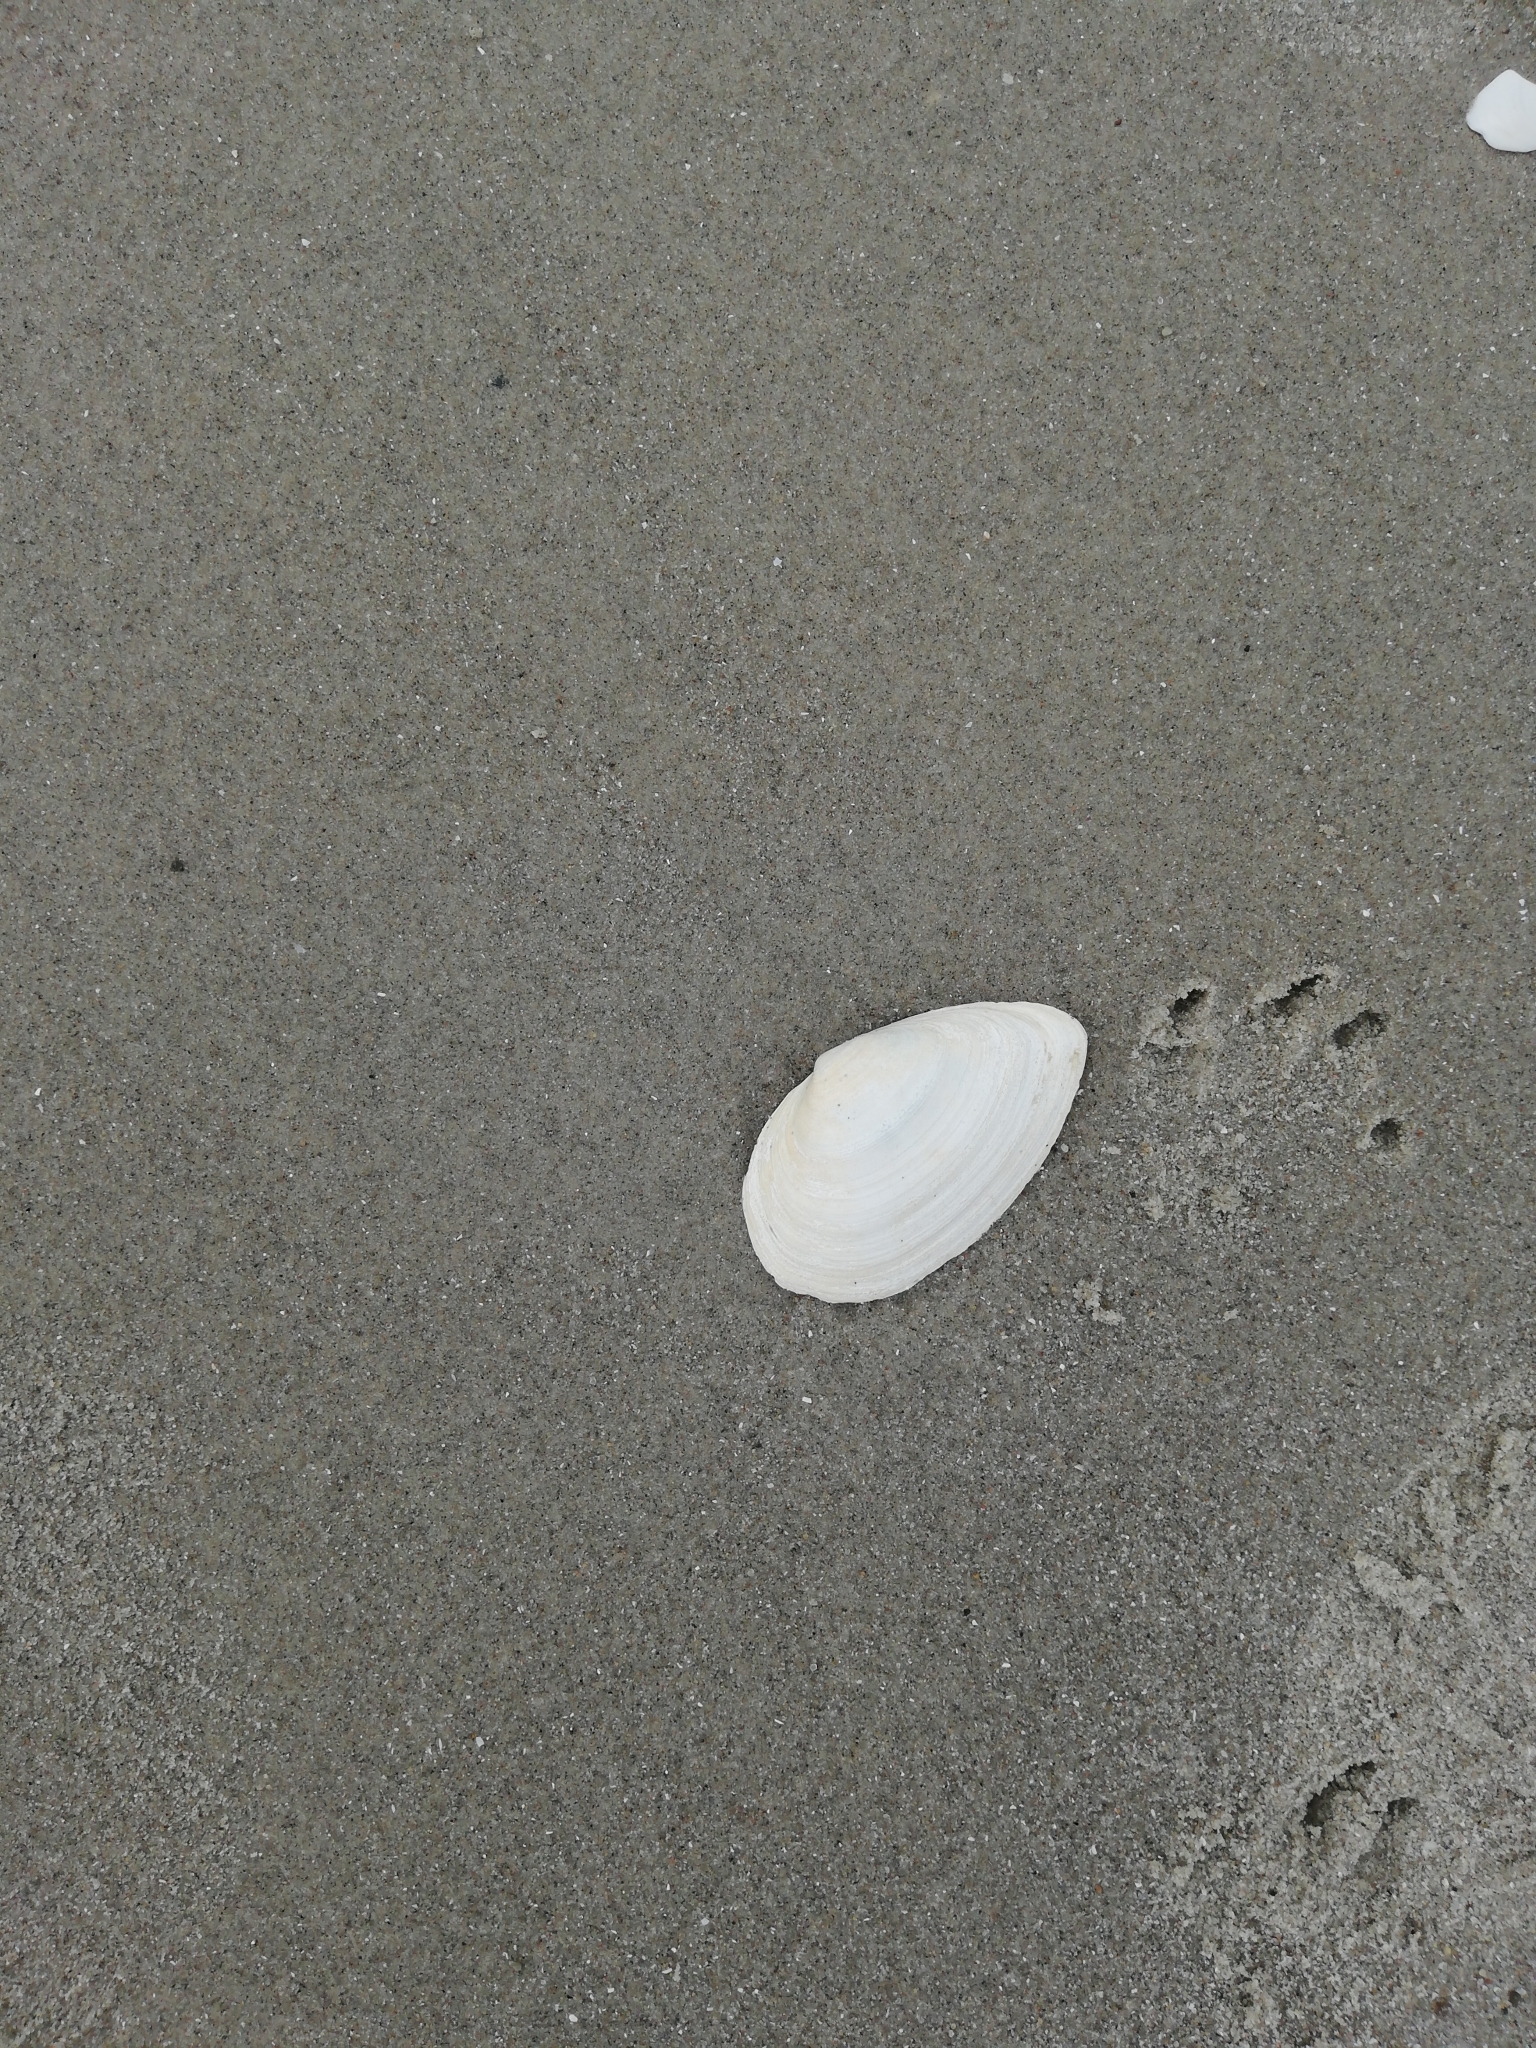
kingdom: Animalia
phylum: Mollusca
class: Bivalvia
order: Myida
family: Myidae
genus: Mya
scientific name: Mya arenaria
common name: Soft-shelled clam
